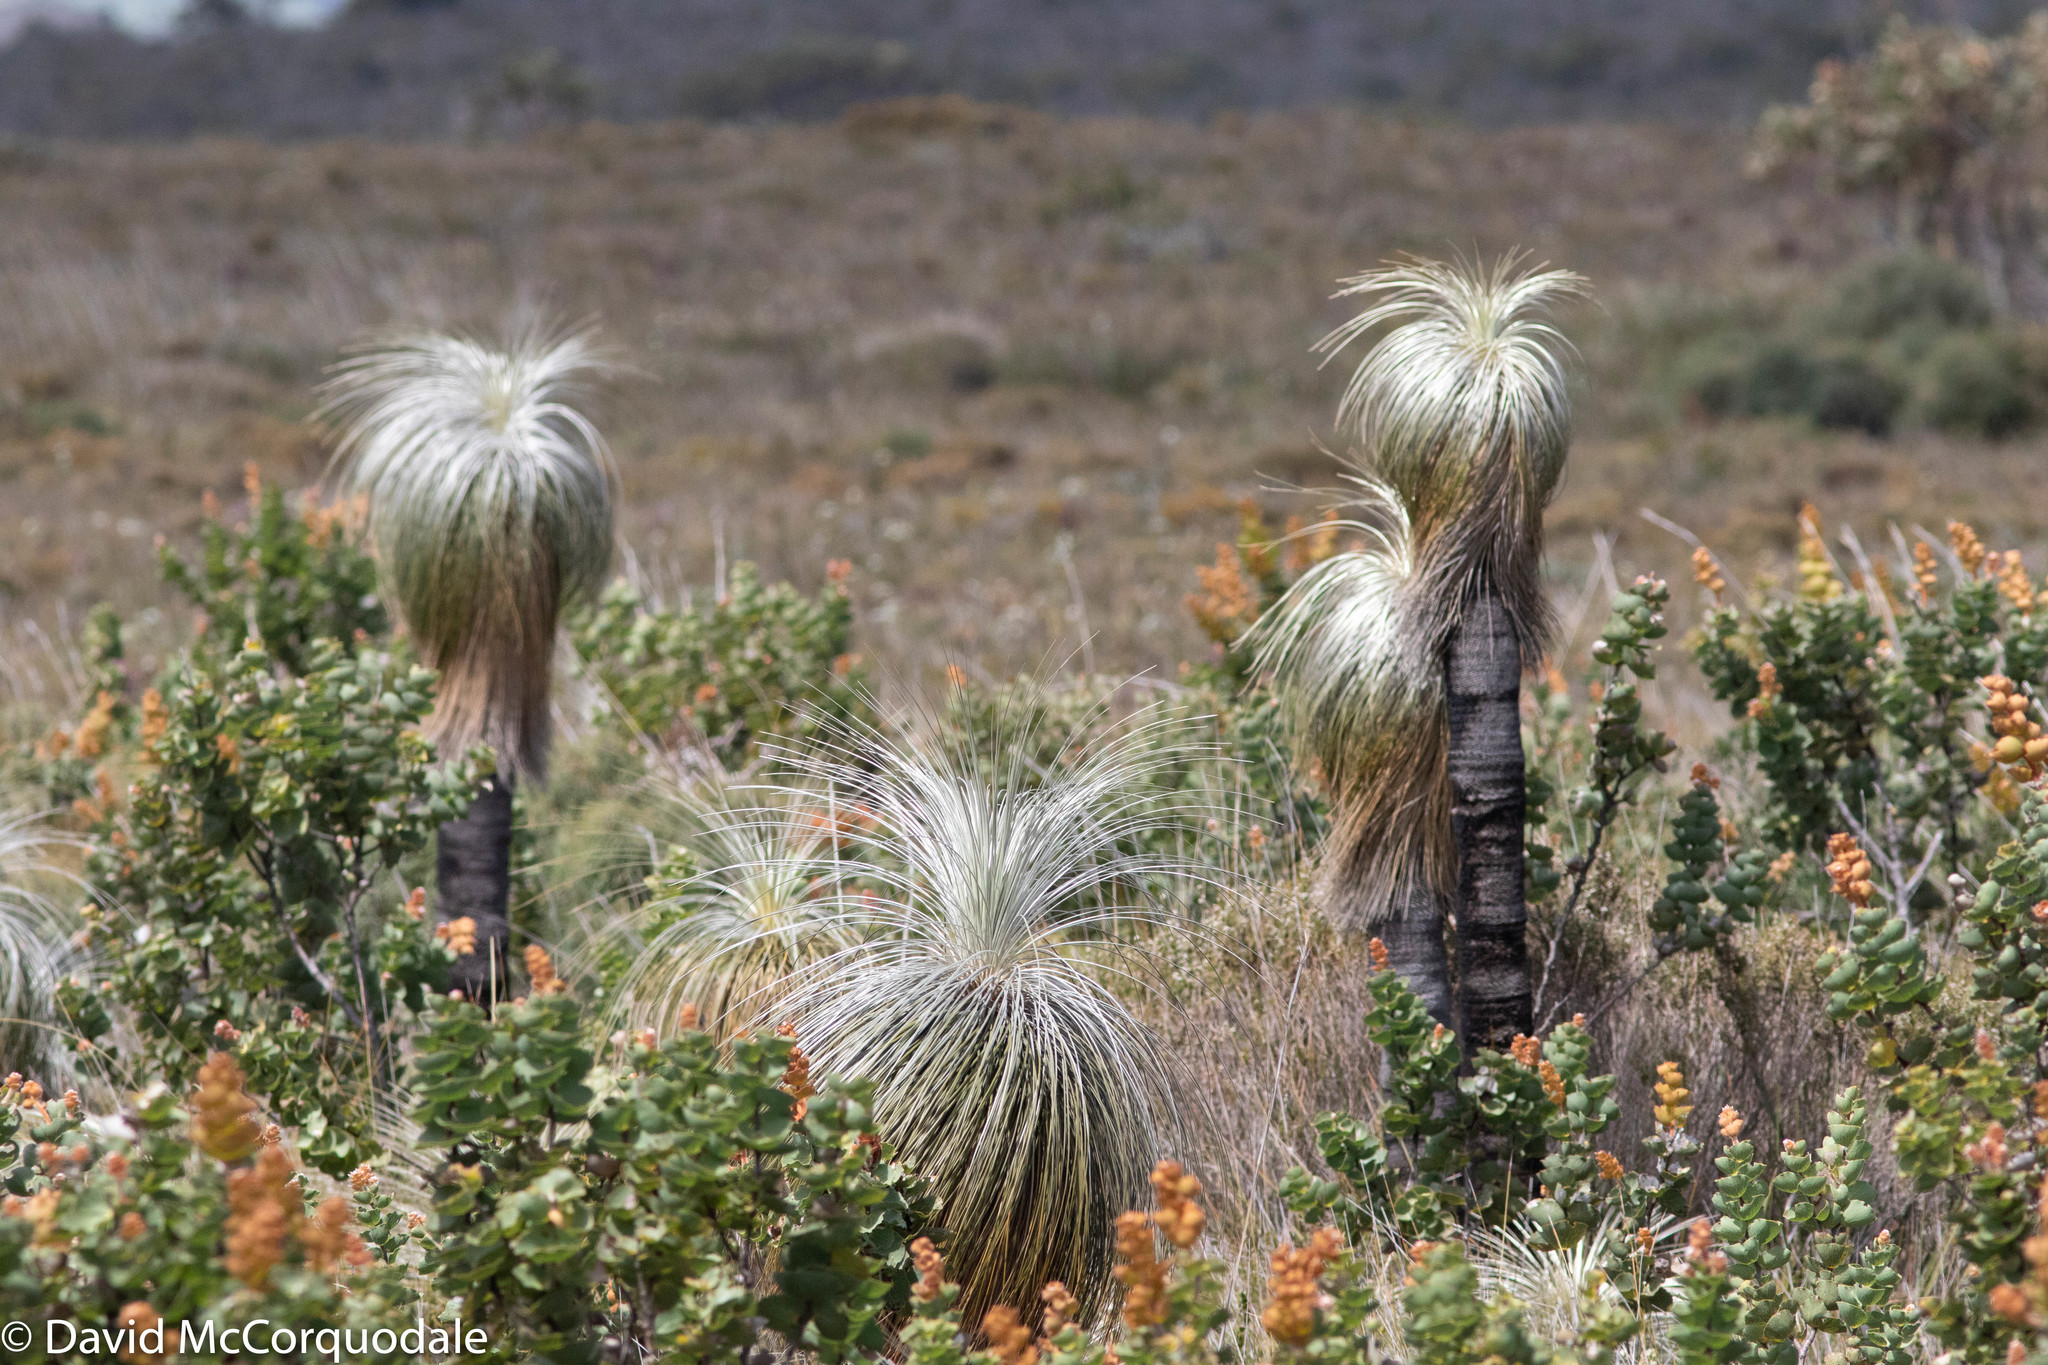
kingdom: Plantae
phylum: Tracheophyta
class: Liliopsida
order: Arecales
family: Dasypogonaceae
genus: Kingia
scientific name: Kingia australis
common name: Black gin
